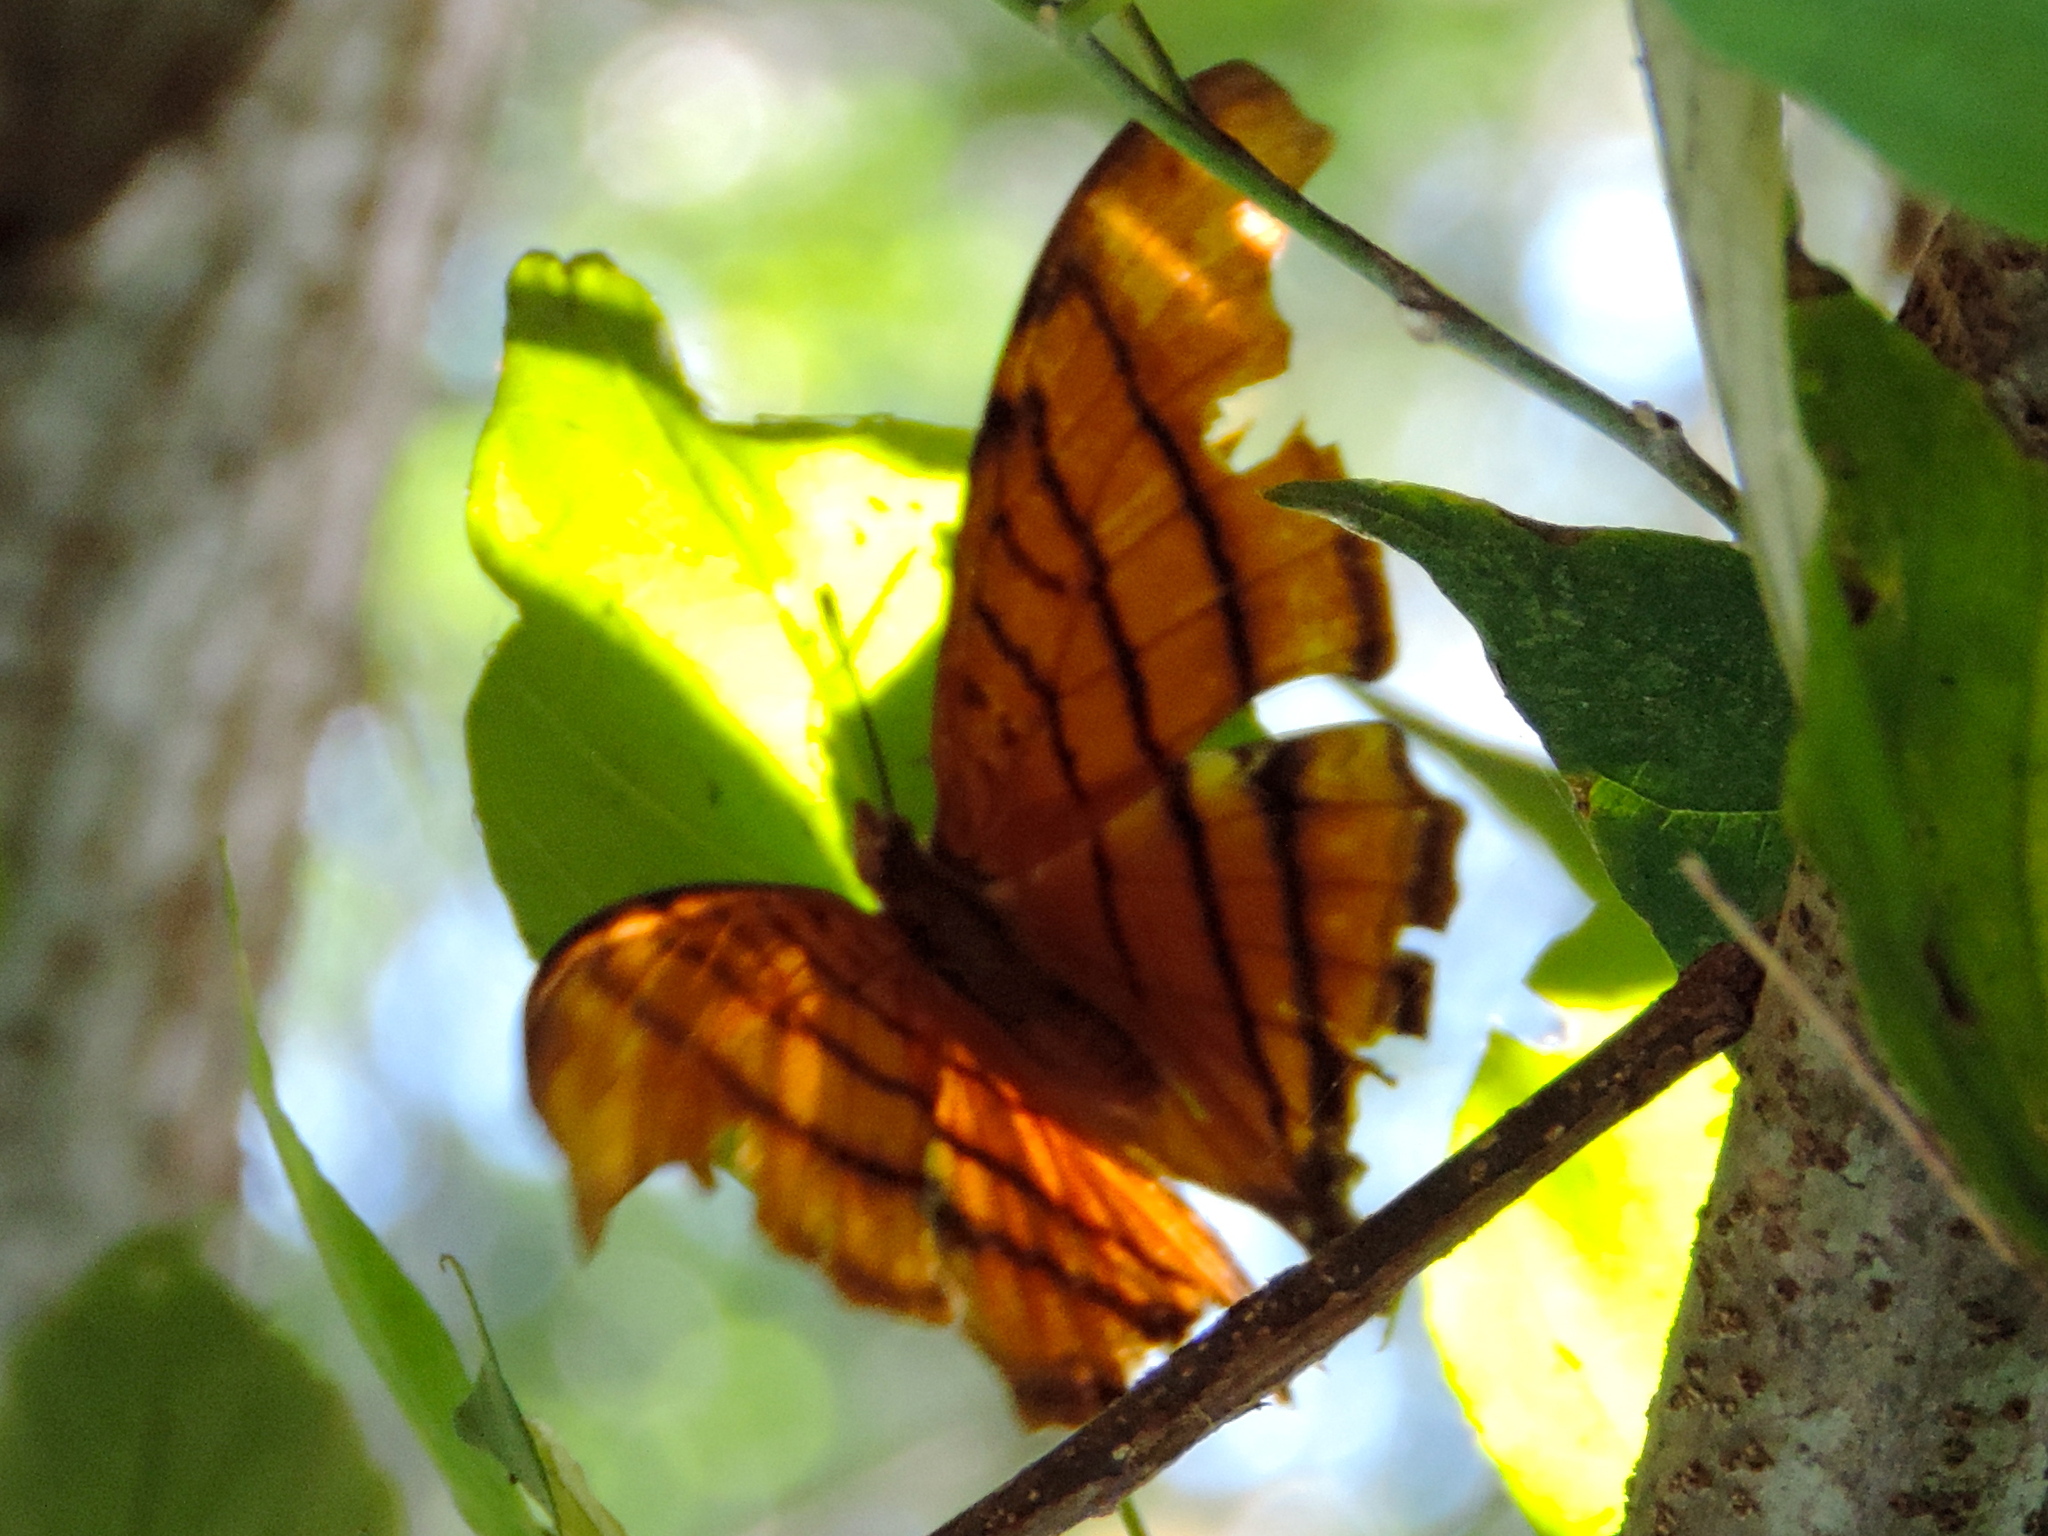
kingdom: Animalia
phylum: Arthropoda
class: Insecta
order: Lepidoptera
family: Nymphalidae
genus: Marpesia
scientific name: Marpesia petreus
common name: Red dagger wing
